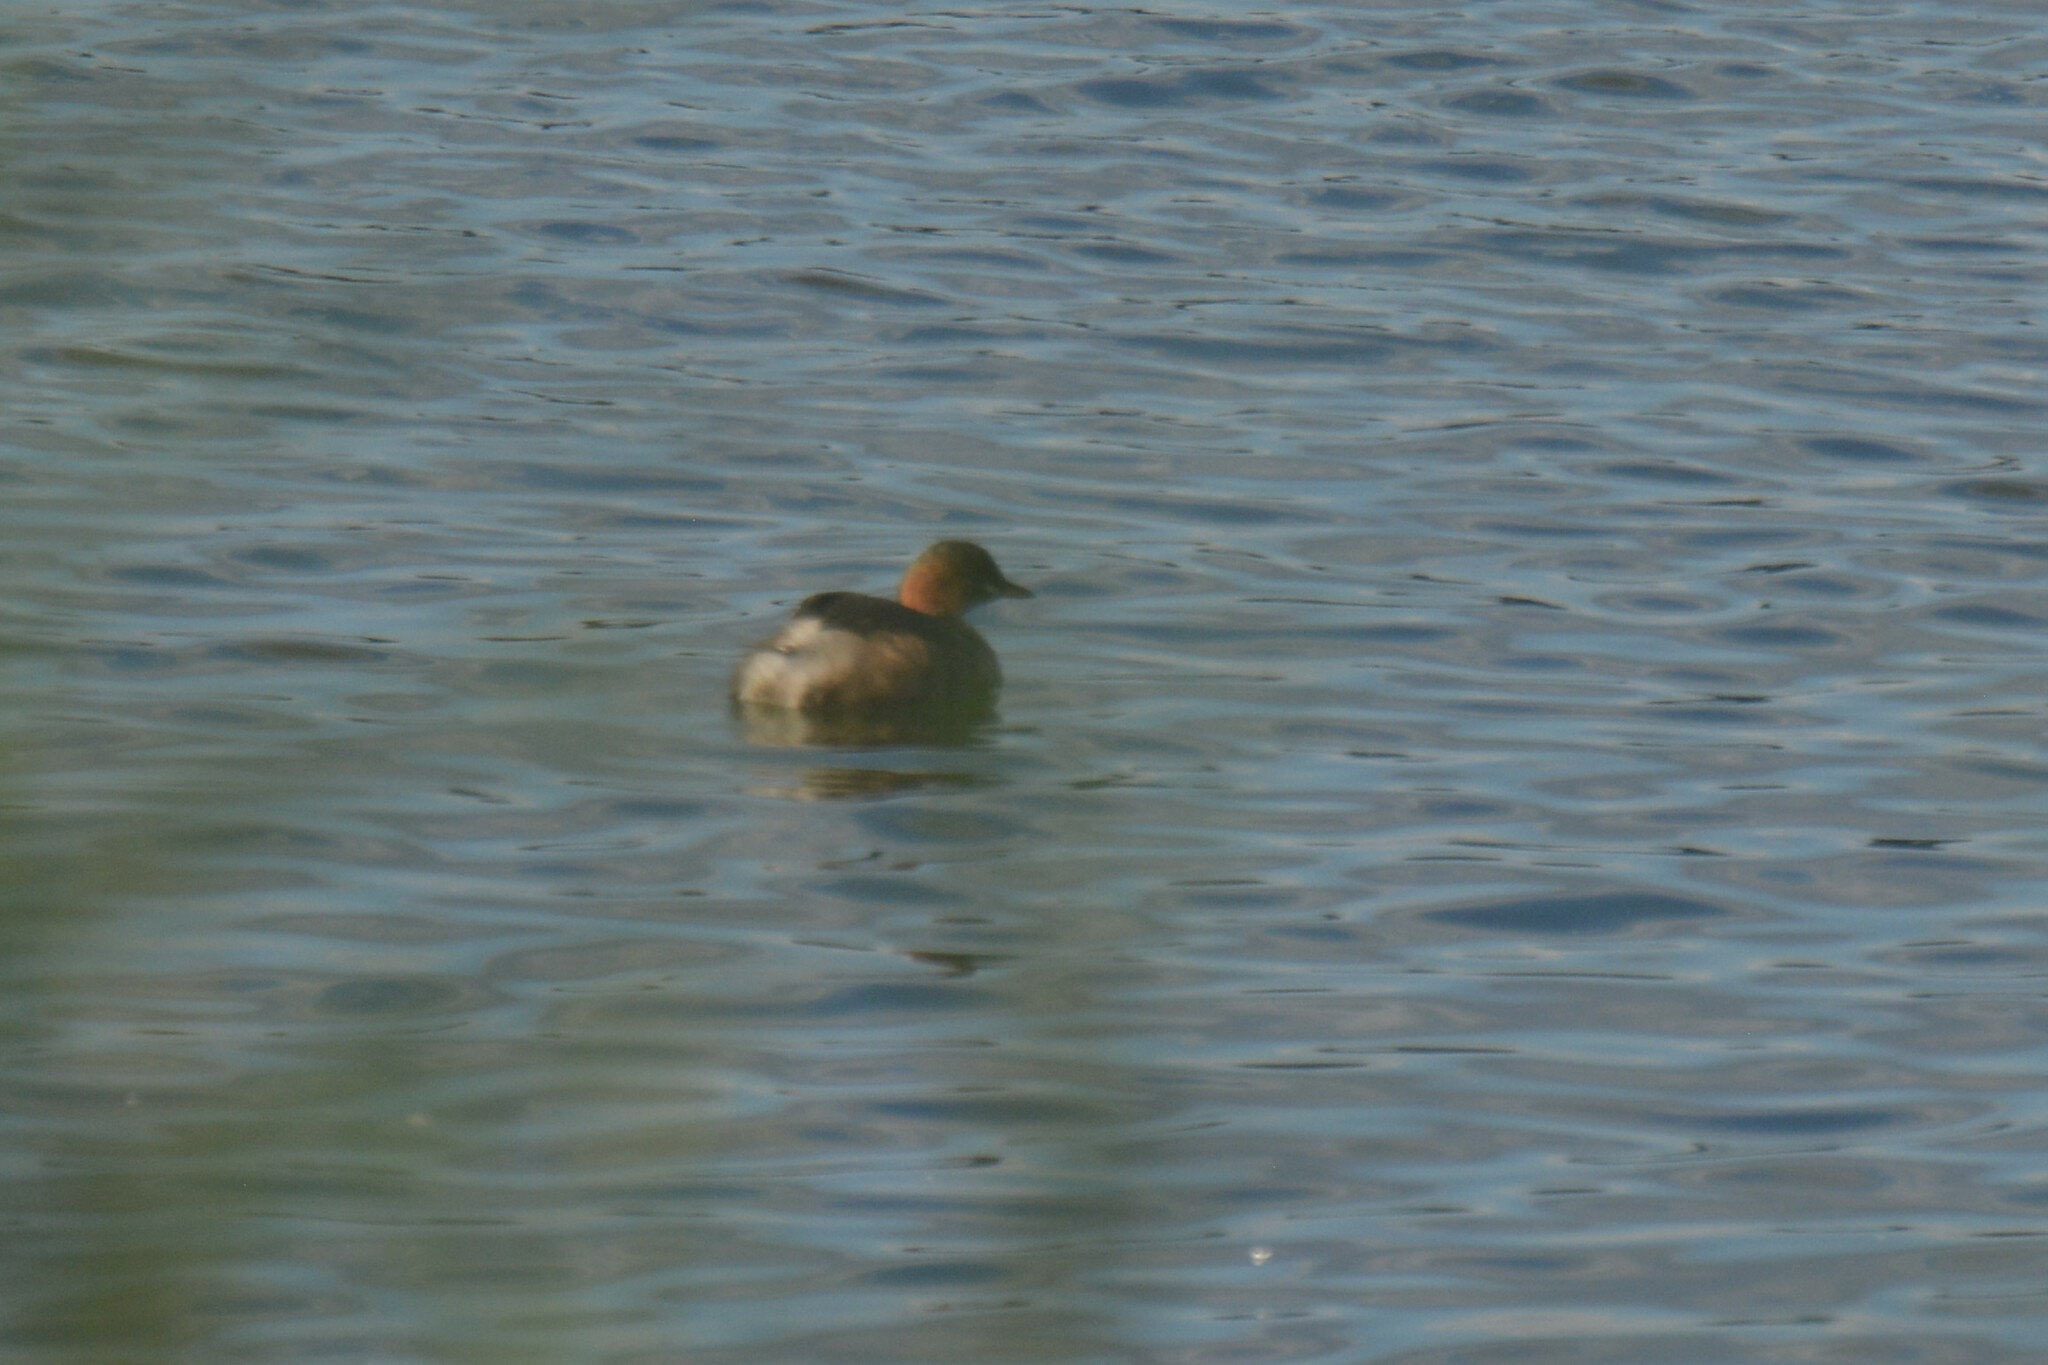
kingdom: Animalia
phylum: Chordata
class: Aves
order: Podicipediformes
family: Podicipedidae
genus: Tachybaptus
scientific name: Tachybaptus ruficollis
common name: Little grebe
